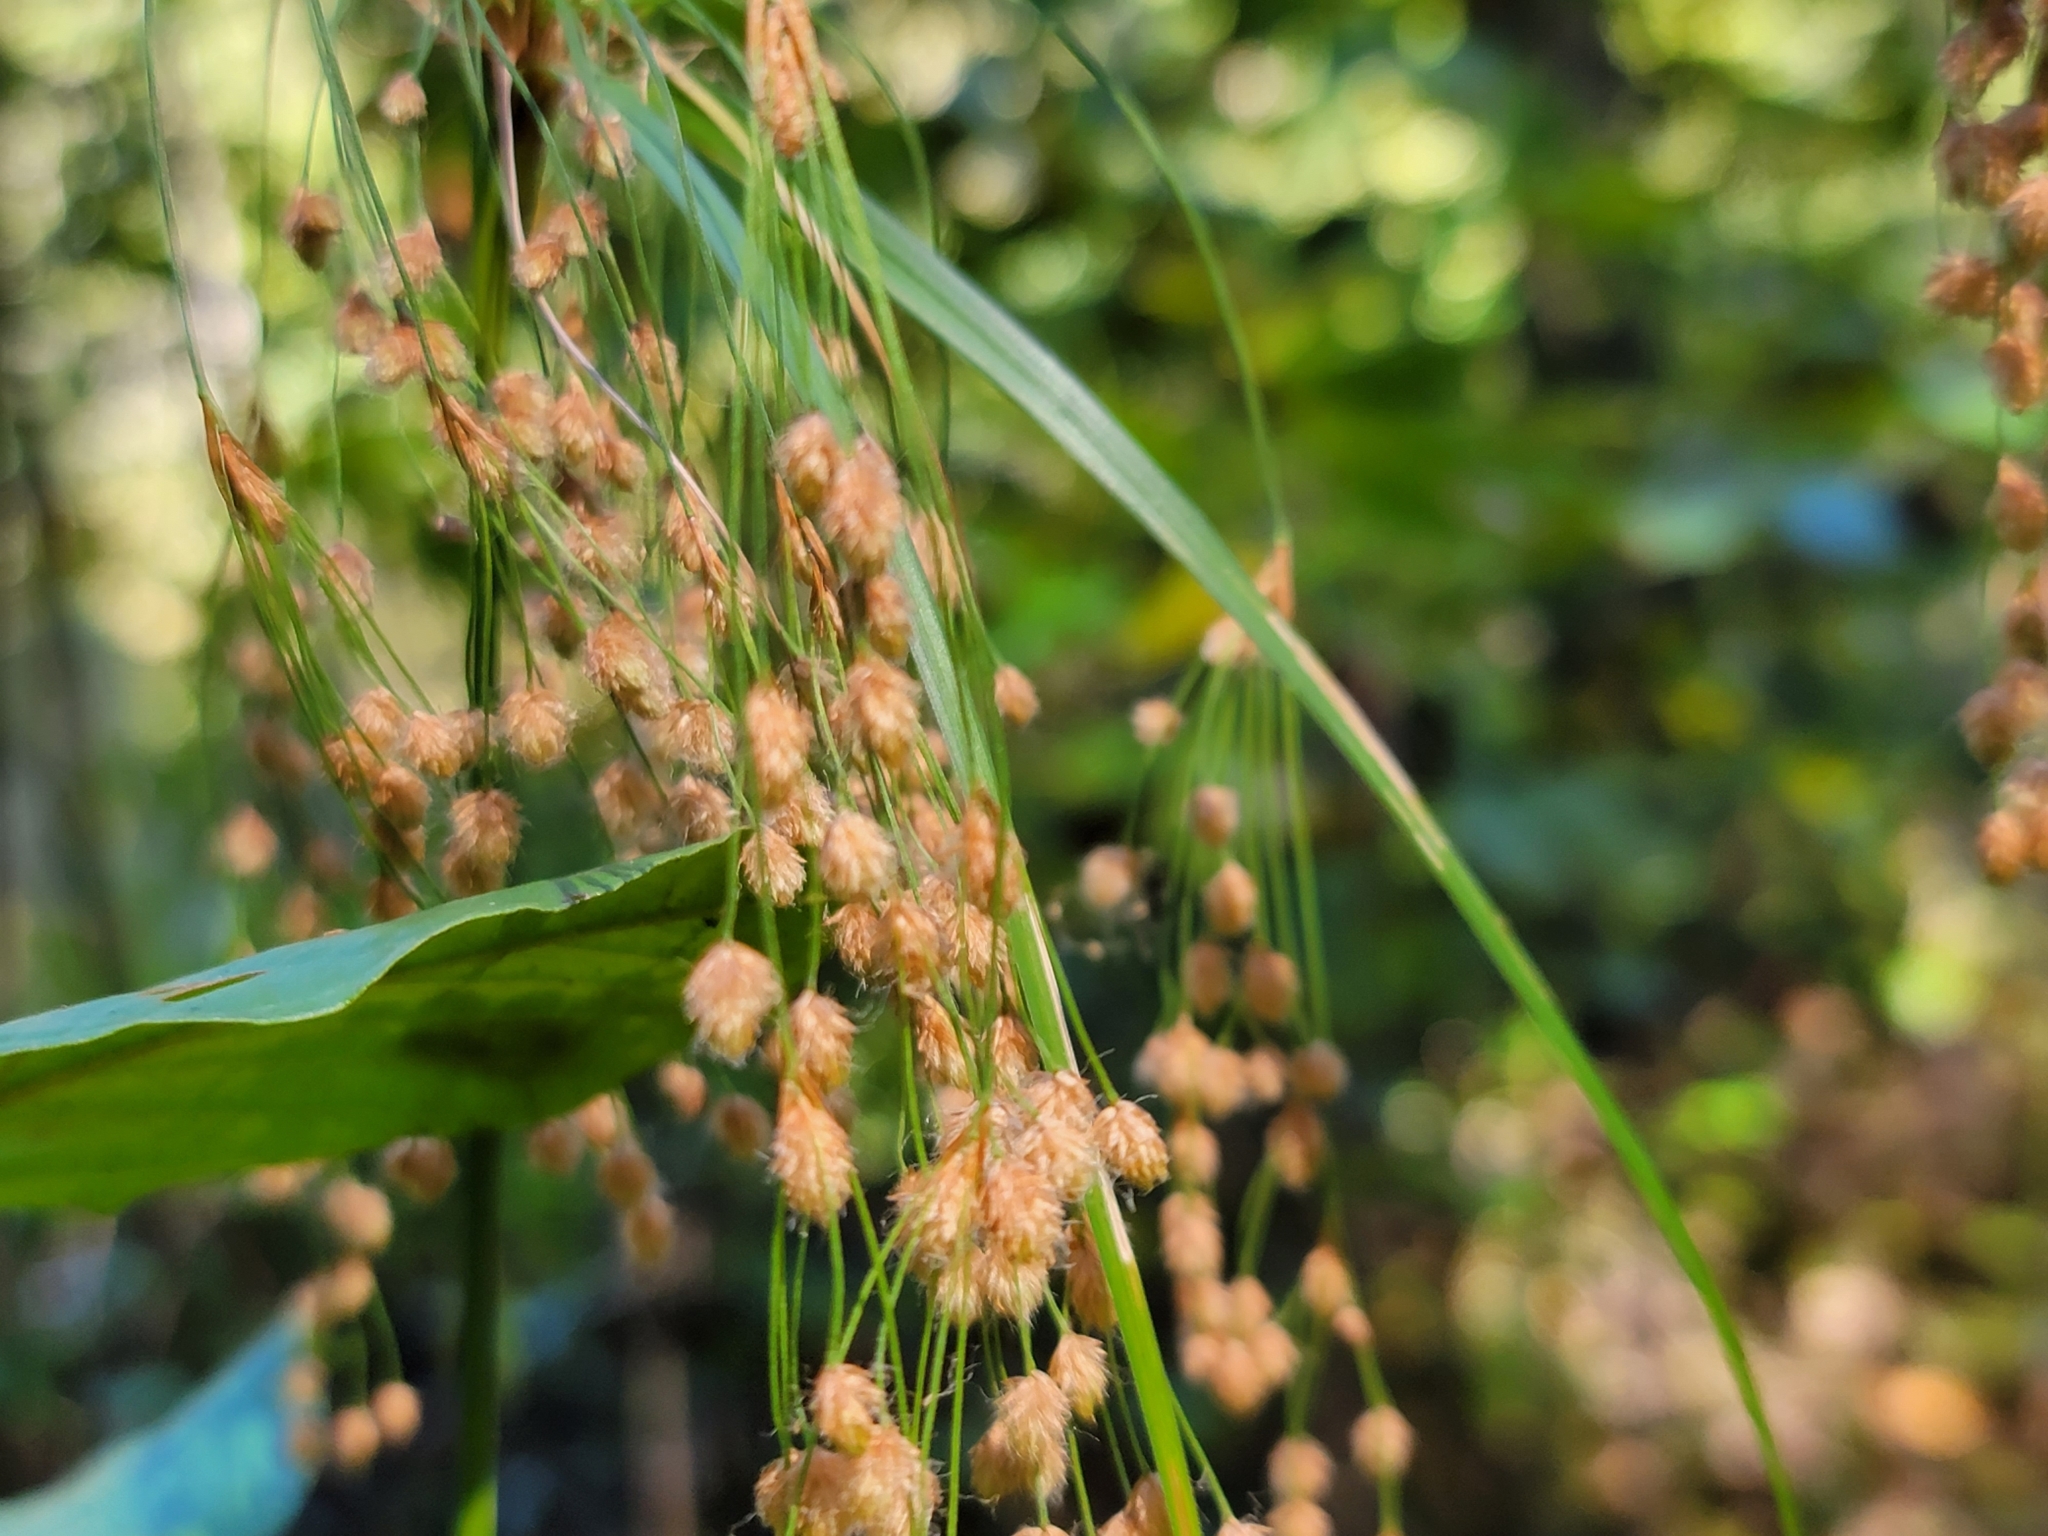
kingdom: Plantae
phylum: Tracheophyta
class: Liliopsida
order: Poales
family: Cyperaceae
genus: Scirpus
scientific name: Scirpus cyperinus
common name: Black-sheathed bulrush
